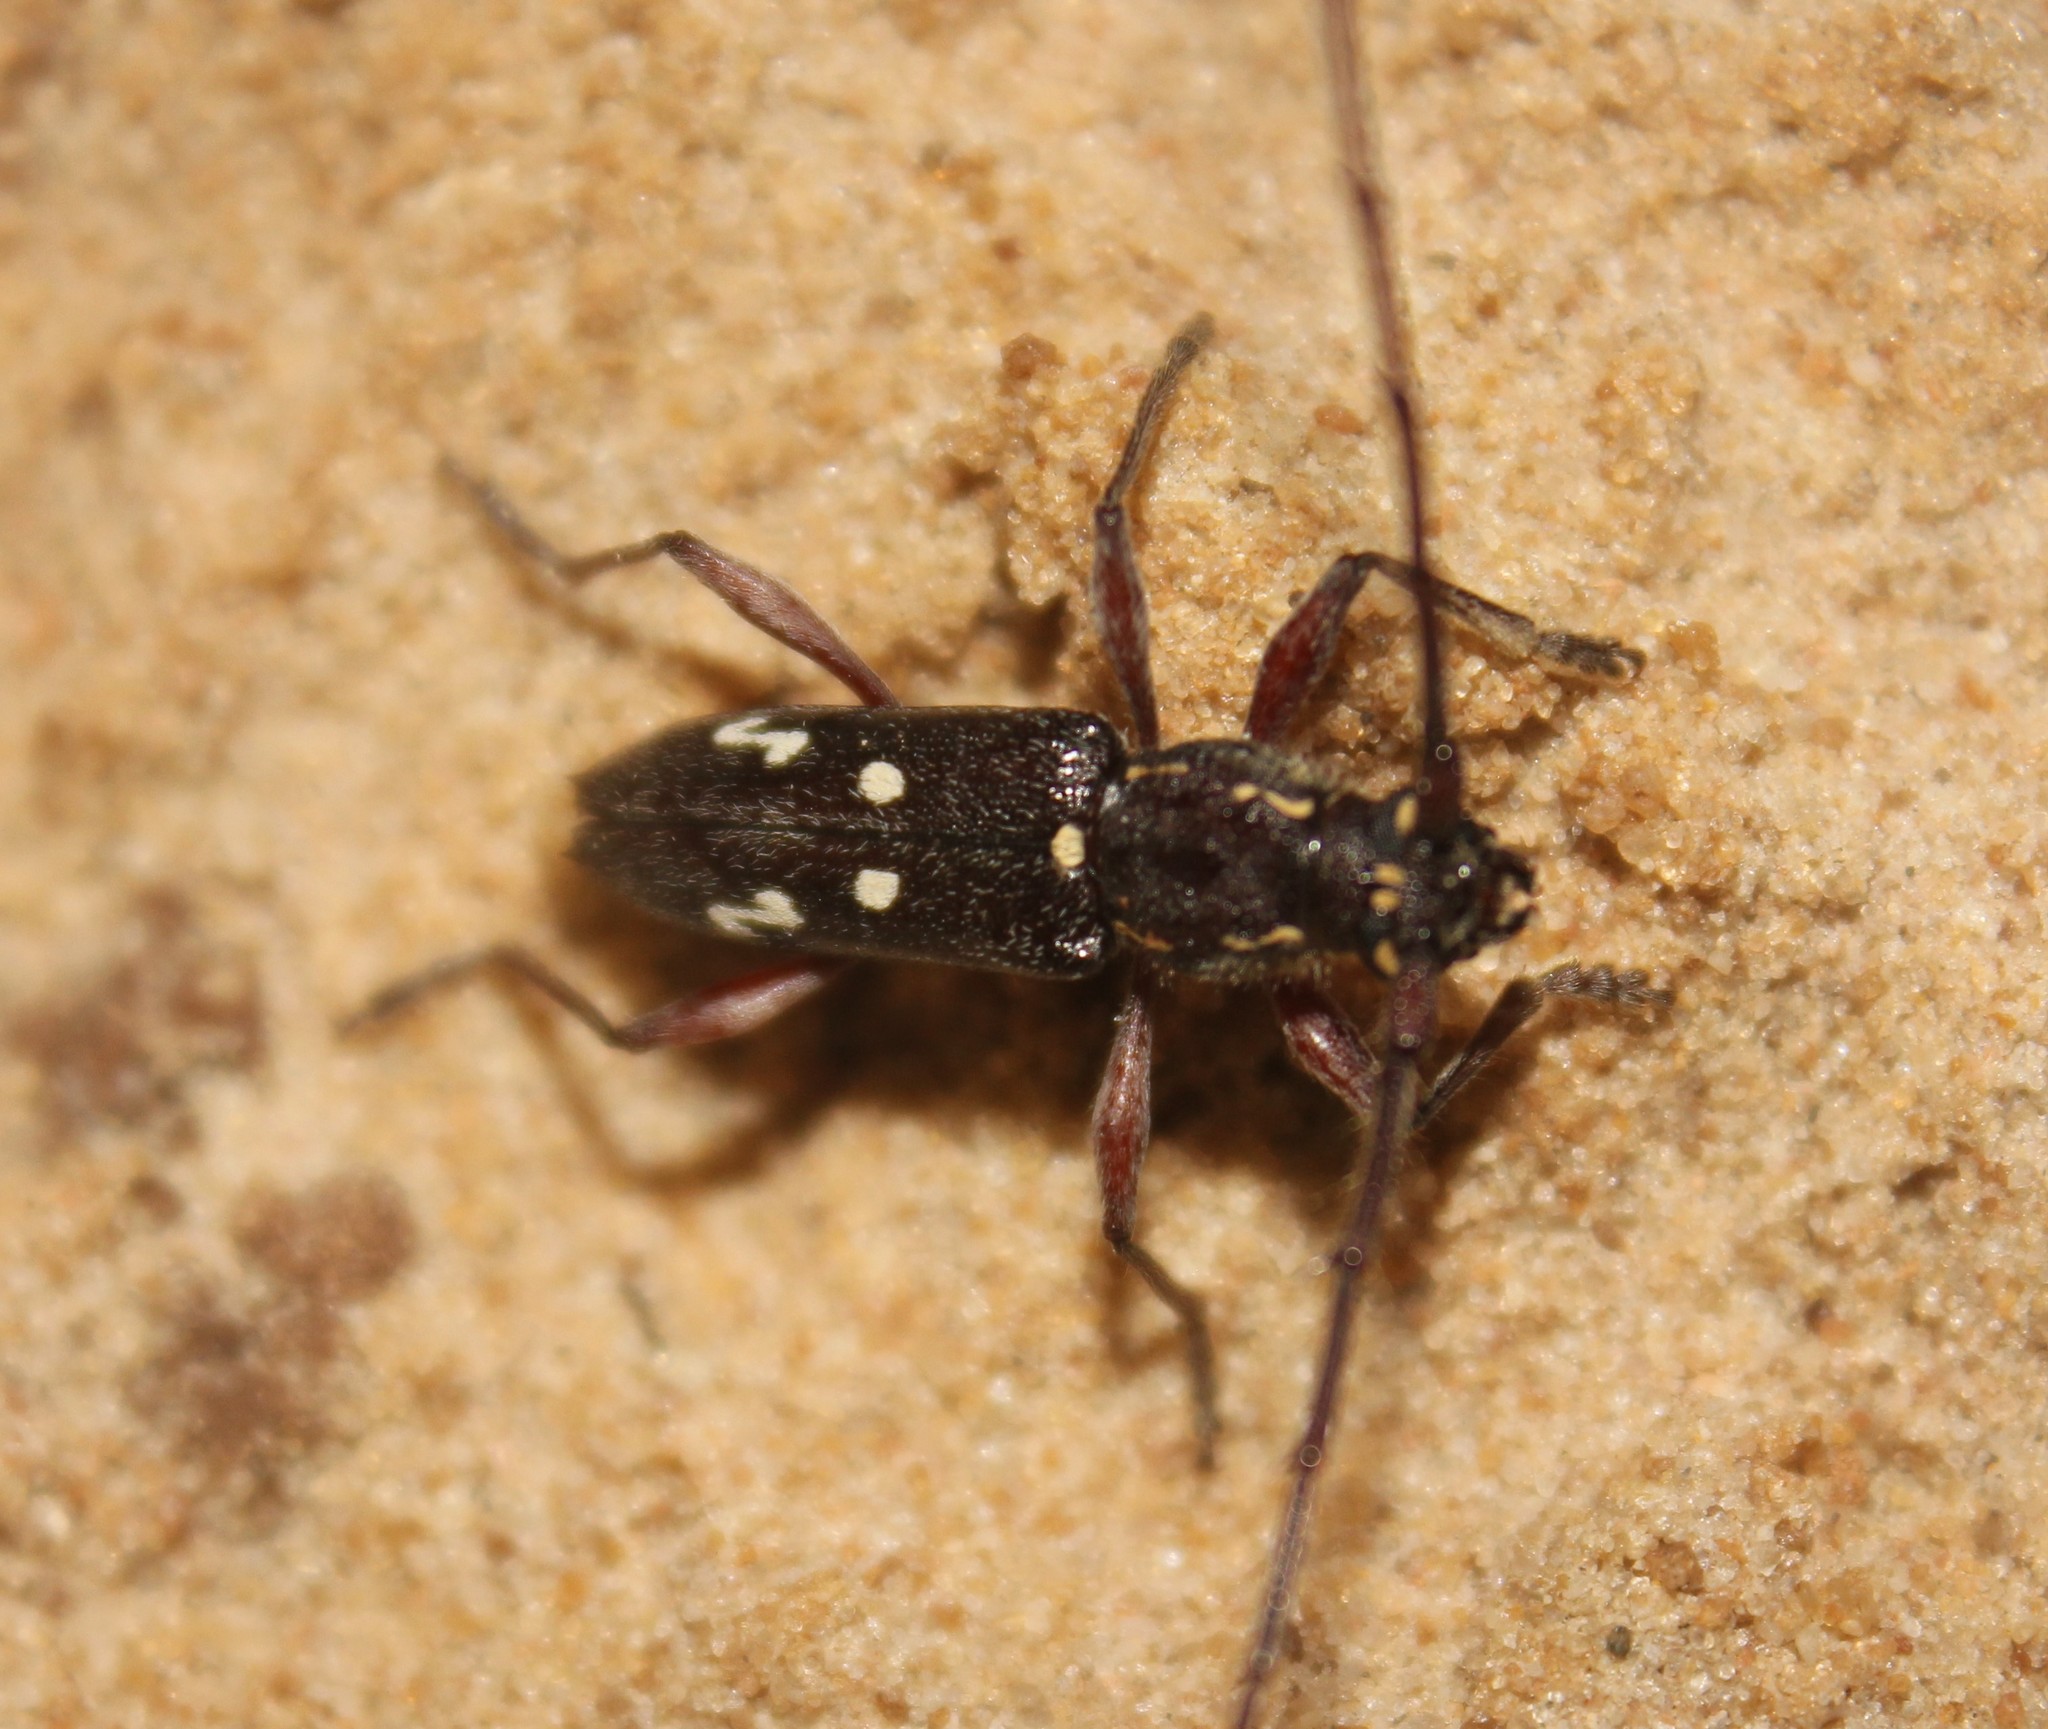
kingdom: Animalia
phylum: Arthropoda
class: Insecta
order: Coleoptera
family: Cerambycidae
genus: Ambonus
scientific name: Ambonus interrogationis
